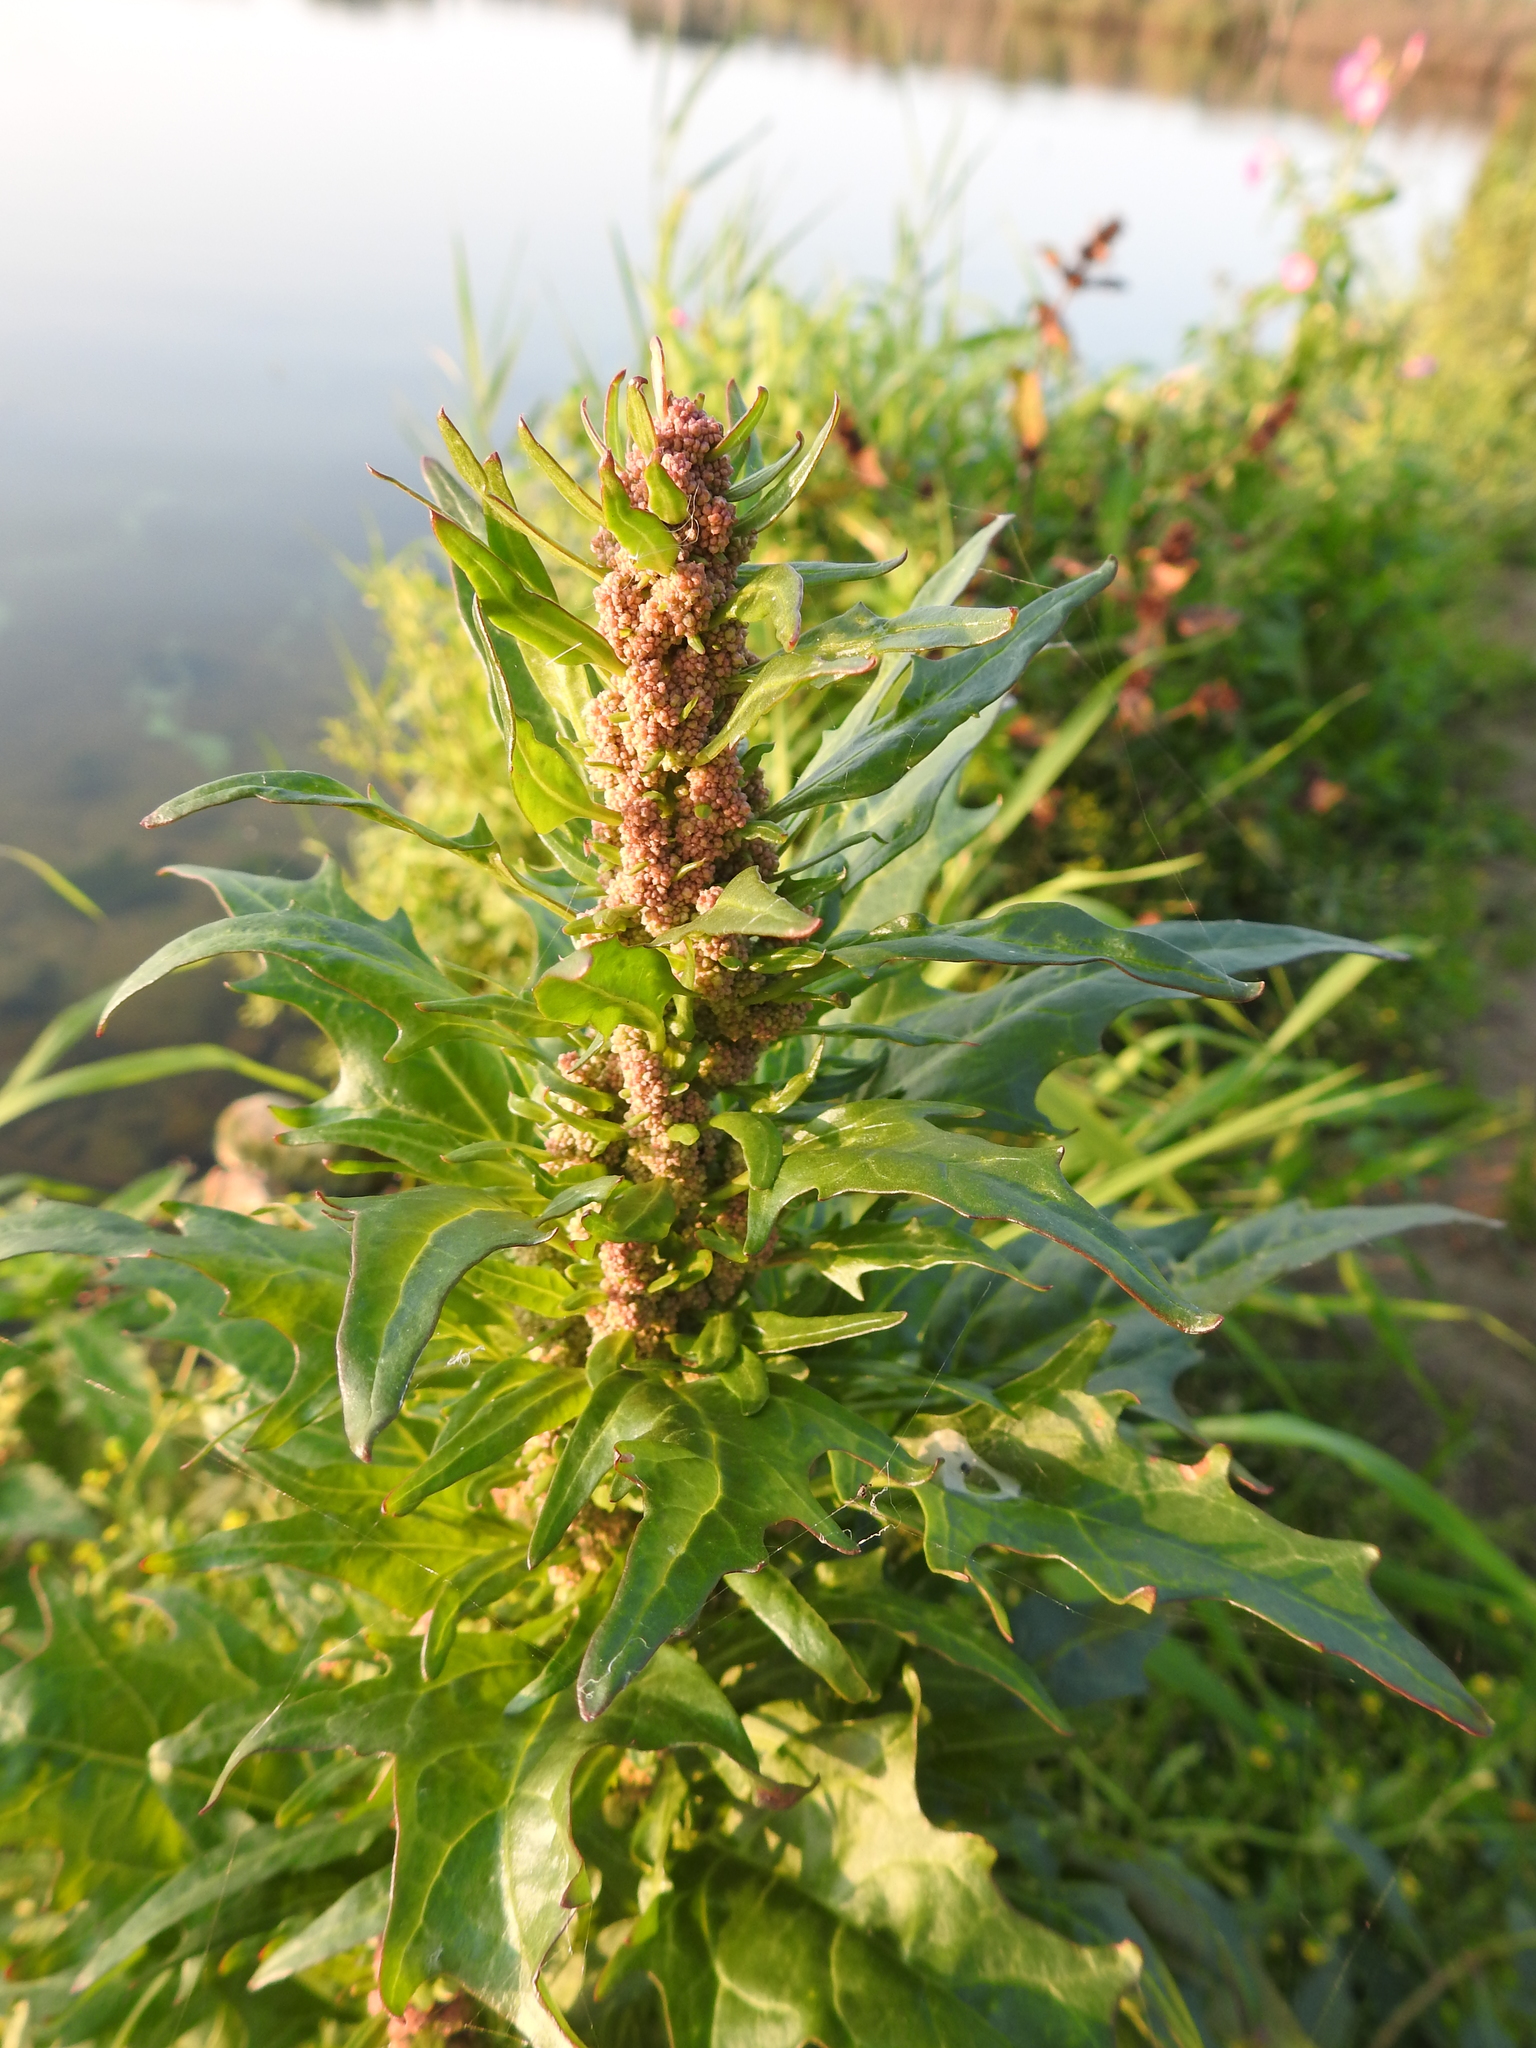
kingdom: Plantae
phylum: Tracheophyta
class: Magnoliopsida
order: Caryophyllales
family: Amaranthaceae
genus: Oxybasis
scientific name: Oxybasis rubra
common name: Red goosefoot
